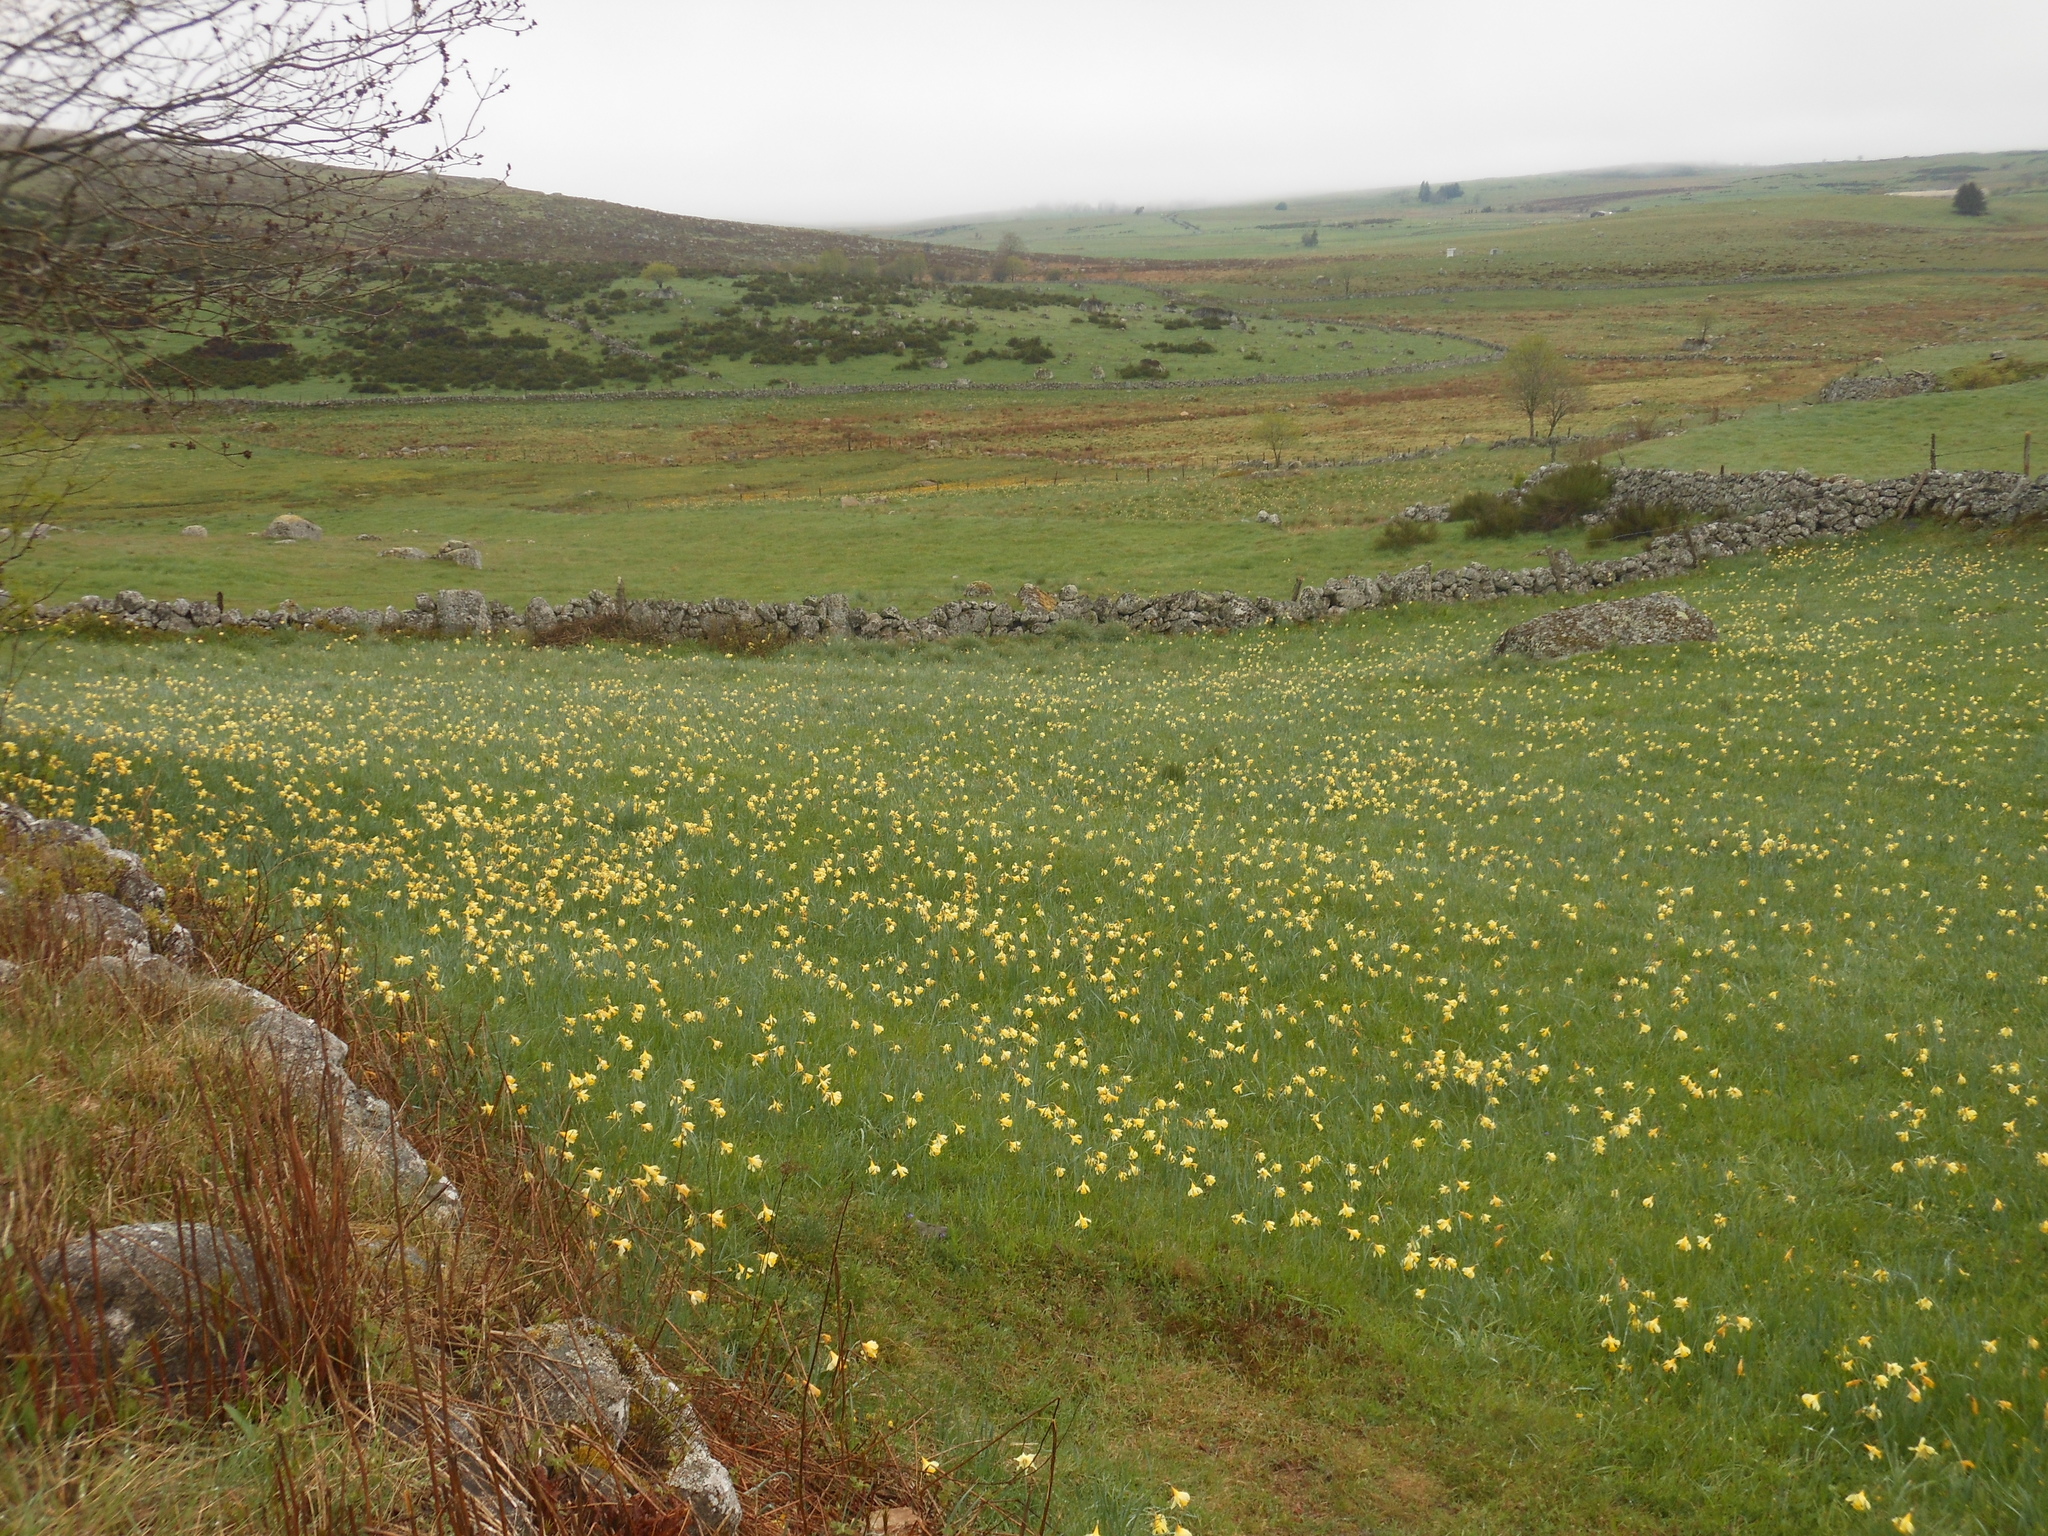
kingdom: Plantae
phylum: Tracheophyta
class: Liliopsida
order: Asparagales
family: Amaryllidaceae
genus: Narcissus
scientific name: Narcissus pseudonarcissus
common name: Daffodil
